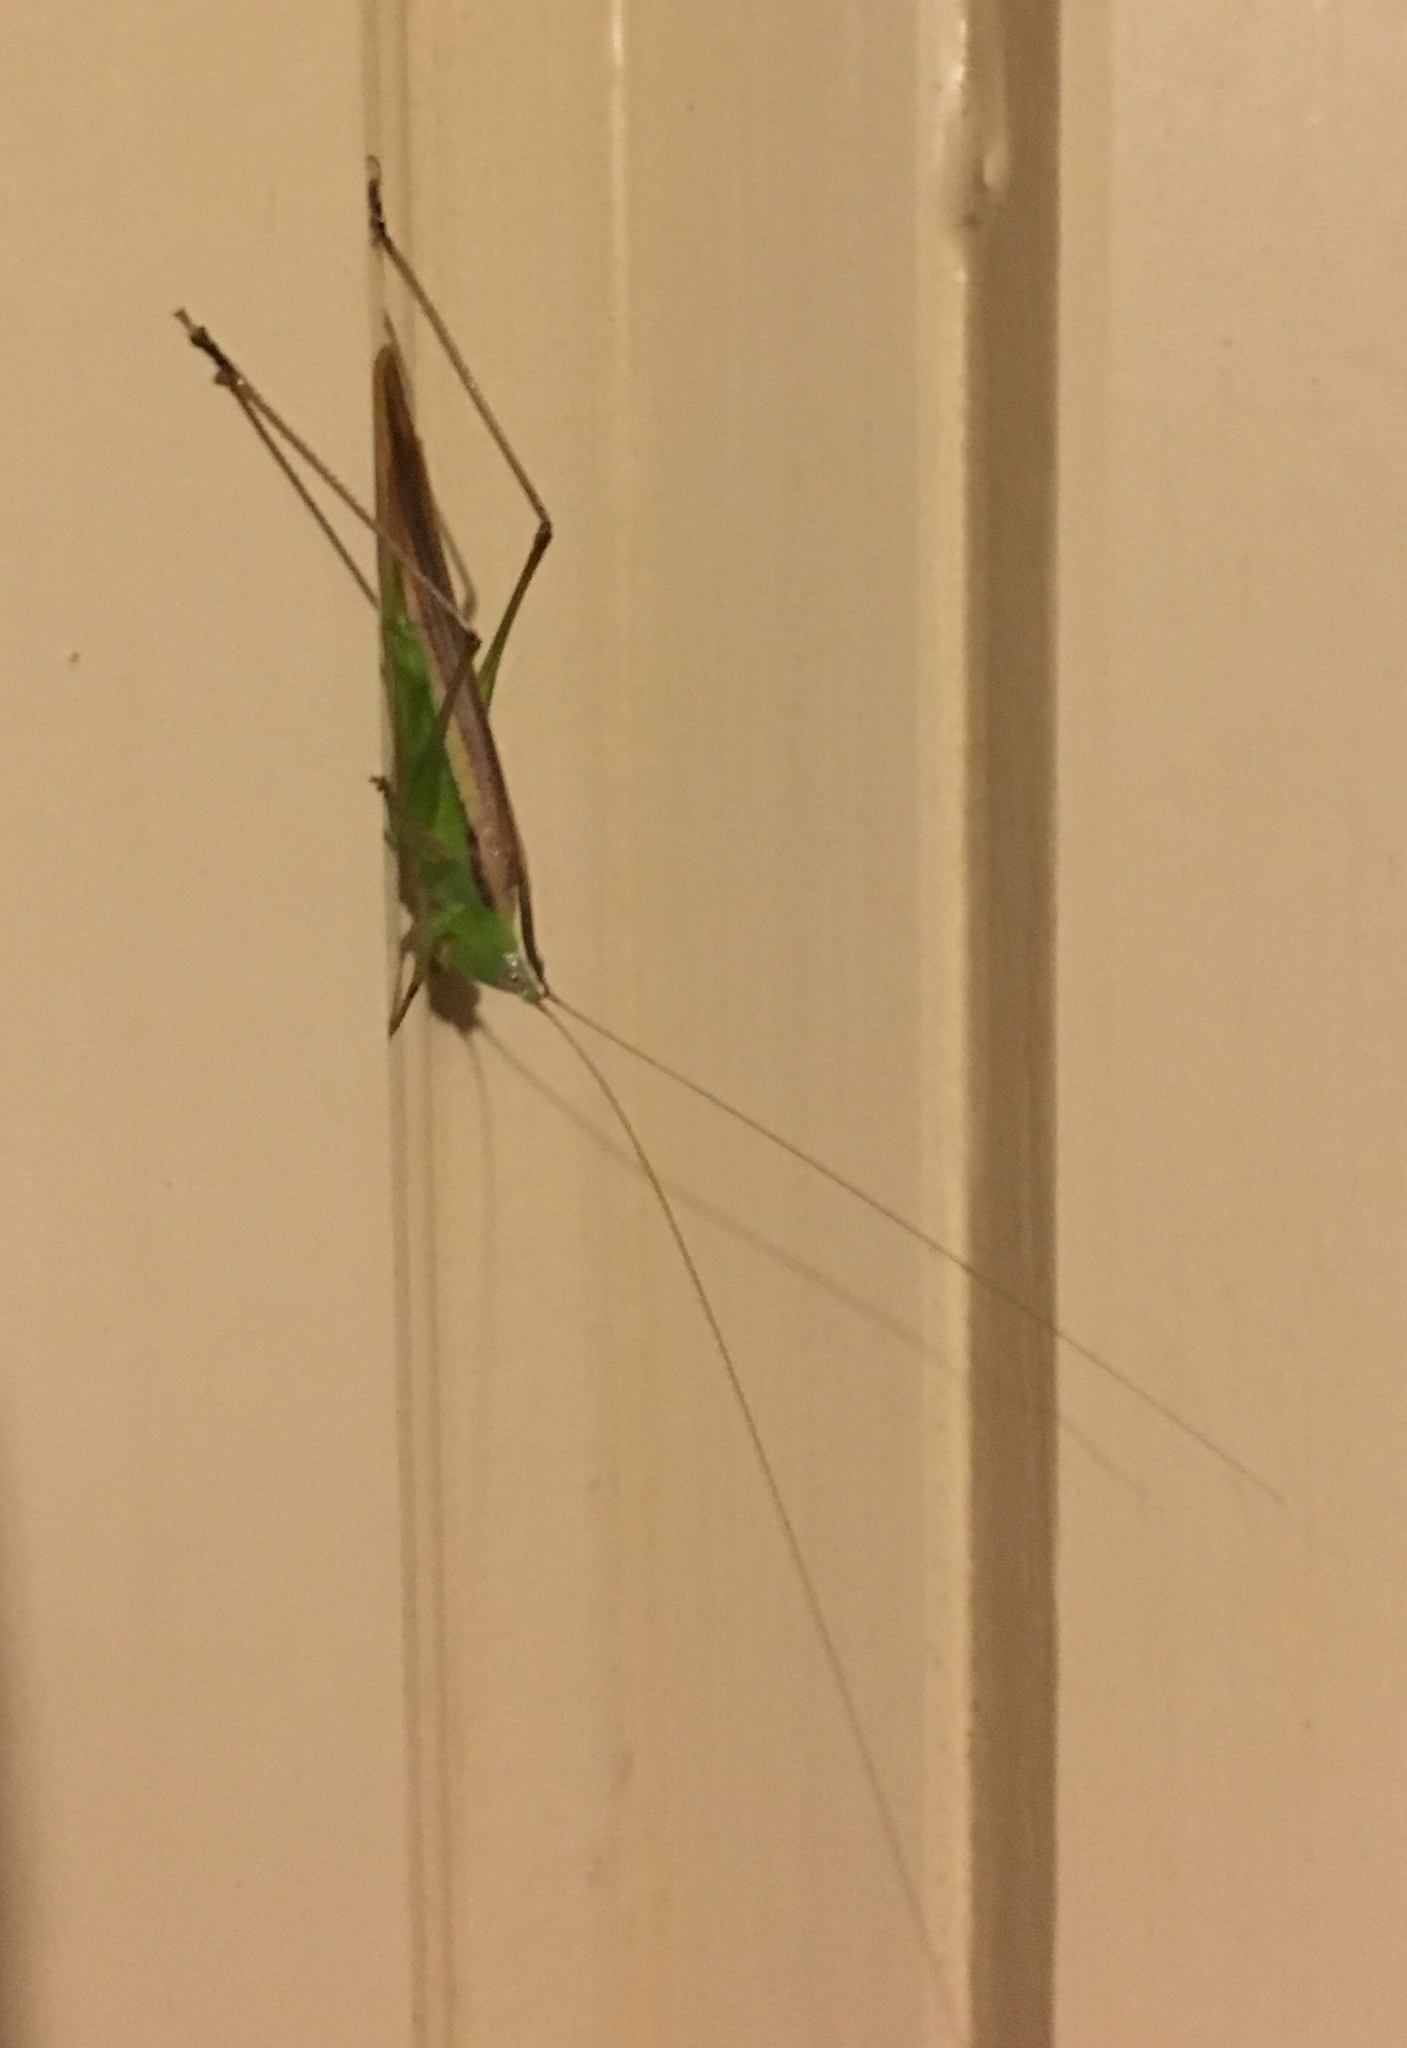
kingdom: Animalia
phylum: Arthropoda
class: Insecta
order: Orthoptera
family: Tettigoniidae
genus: Conocephalus
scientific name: Conocephalus upoluensis
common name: Upolu meadow katydid
